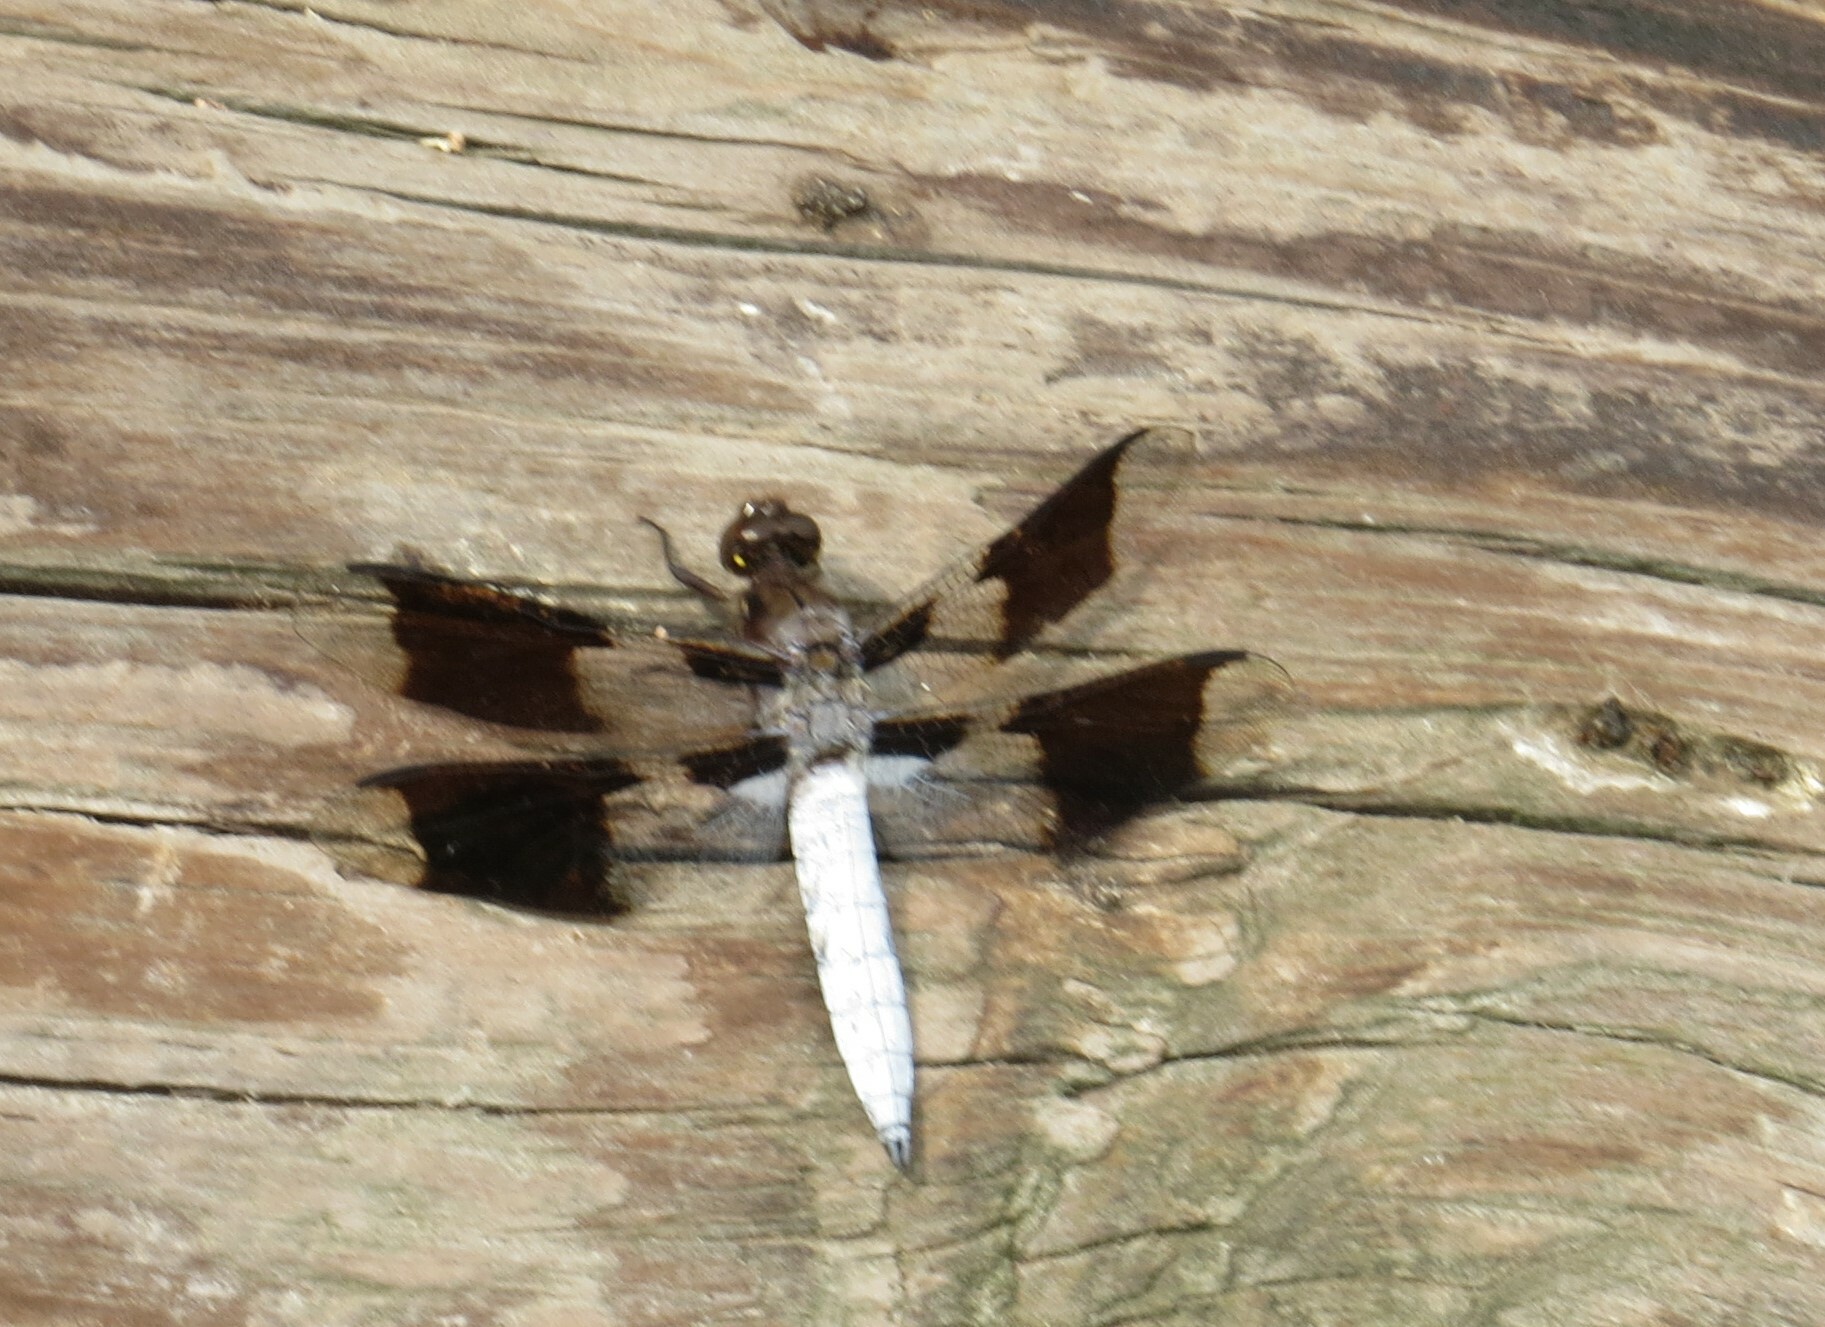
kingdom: Animalia
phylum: Arthropoda
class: Insecta
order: Odonata
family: Libellulidae
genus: Plathemis
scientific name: Plathemis lydia
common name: Common whitetail
